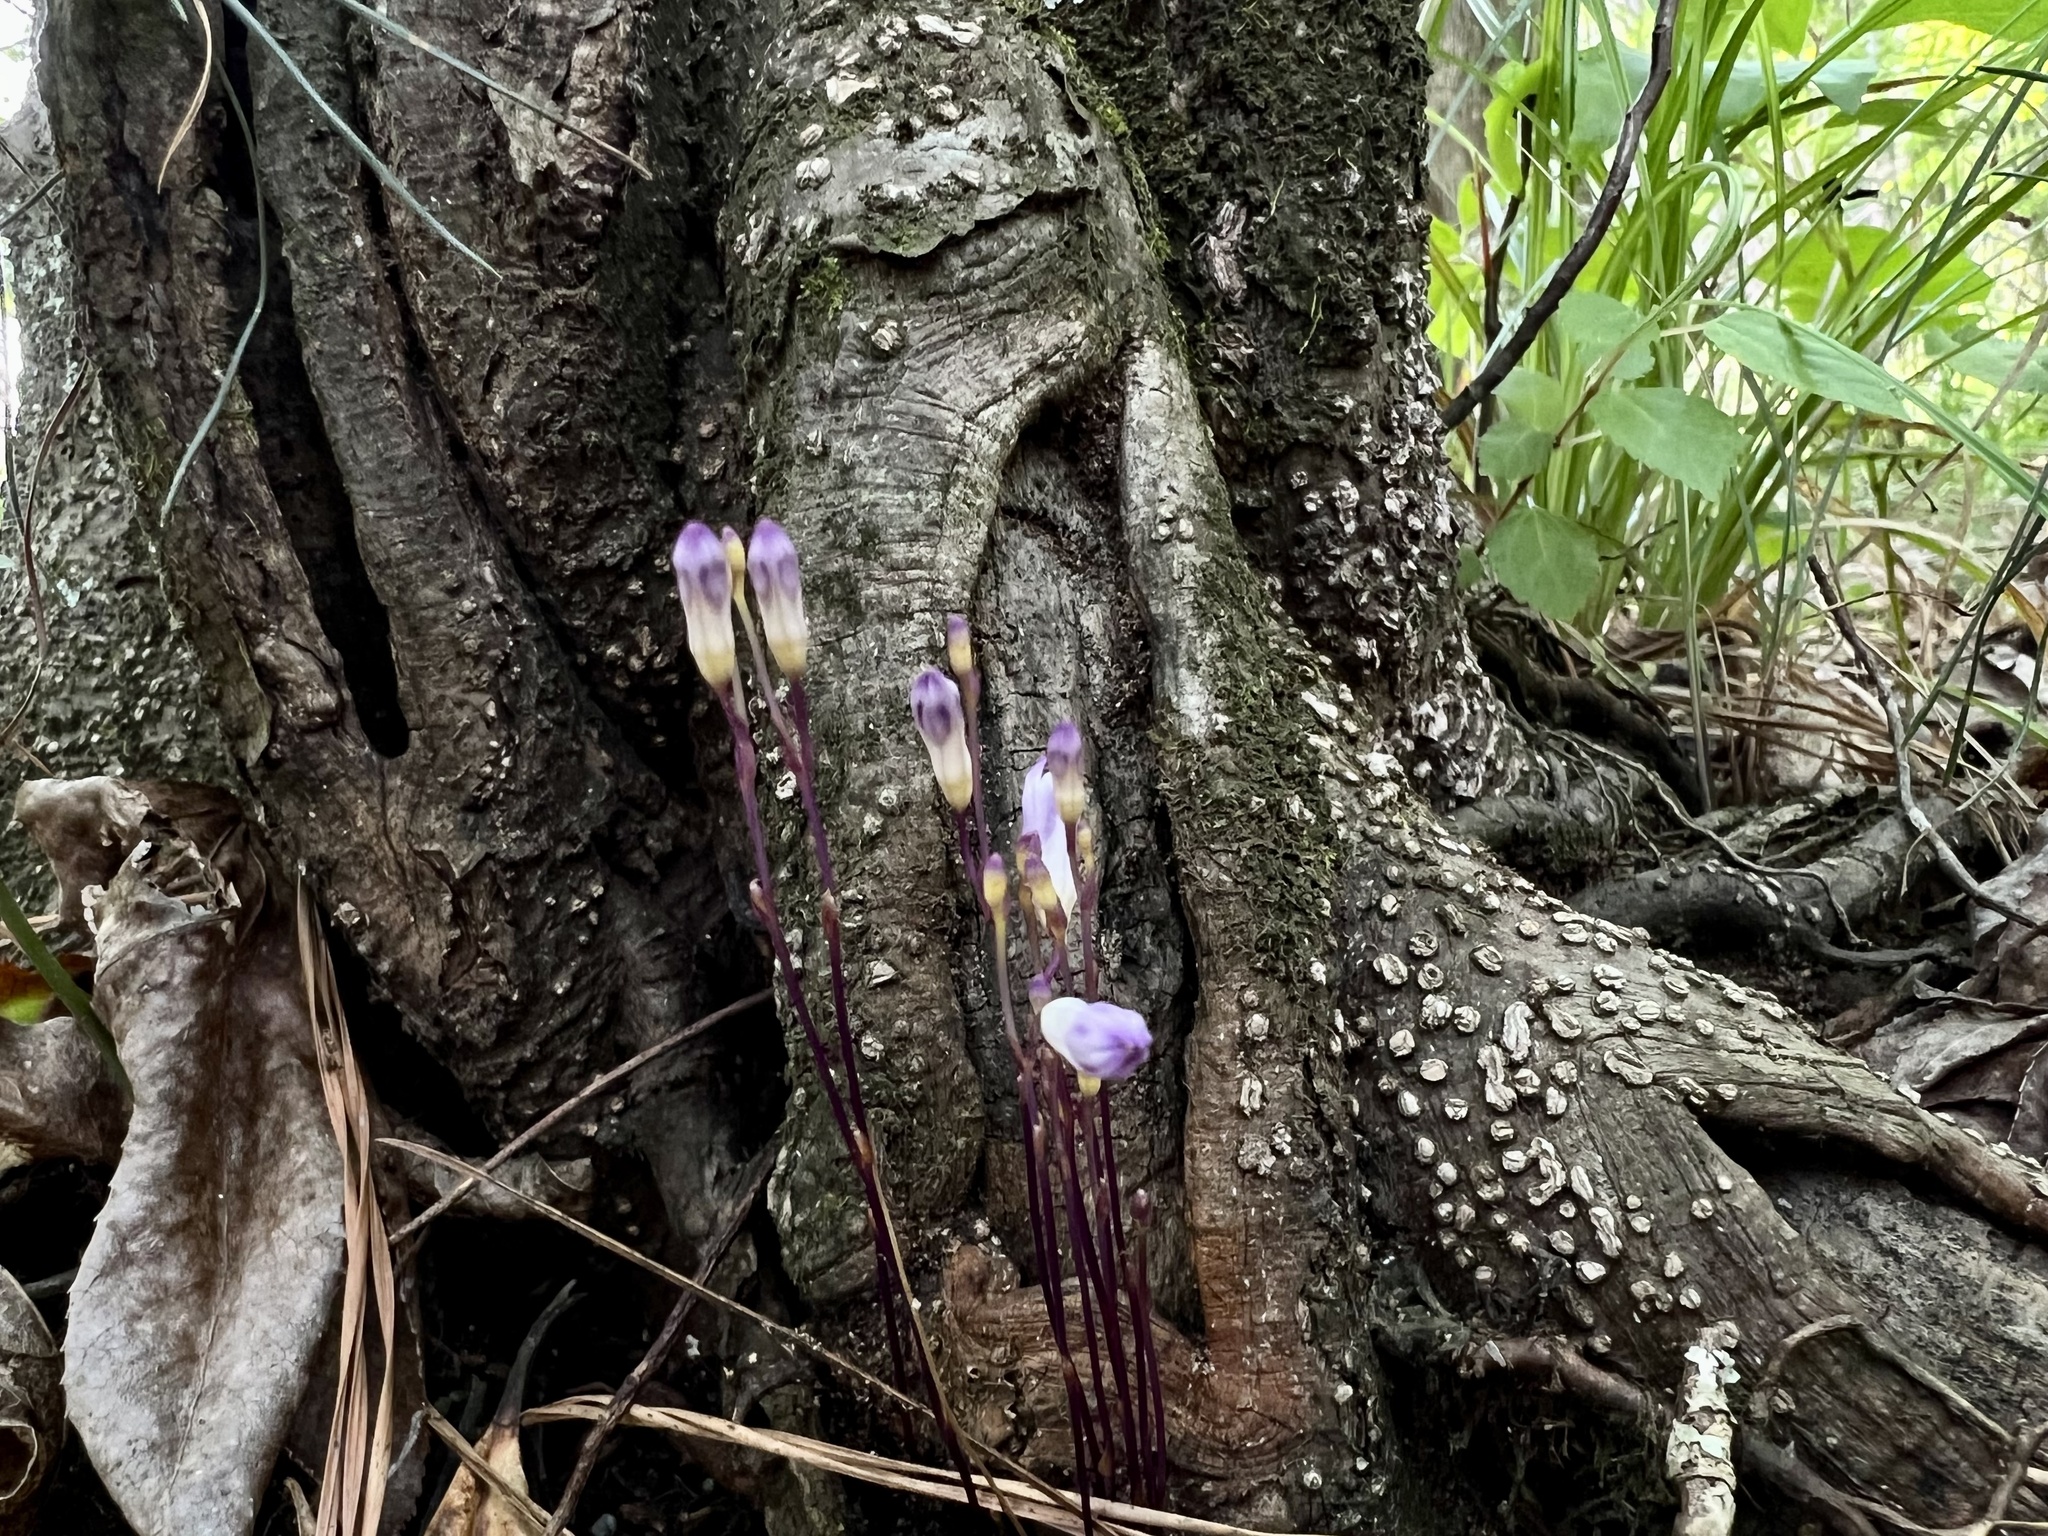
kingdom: Plantae
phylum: Tracheophyta
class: Liliopsida
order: Dioscoreales
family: Burmanniaceae
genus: Apteria
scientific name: Apteria aphylla
